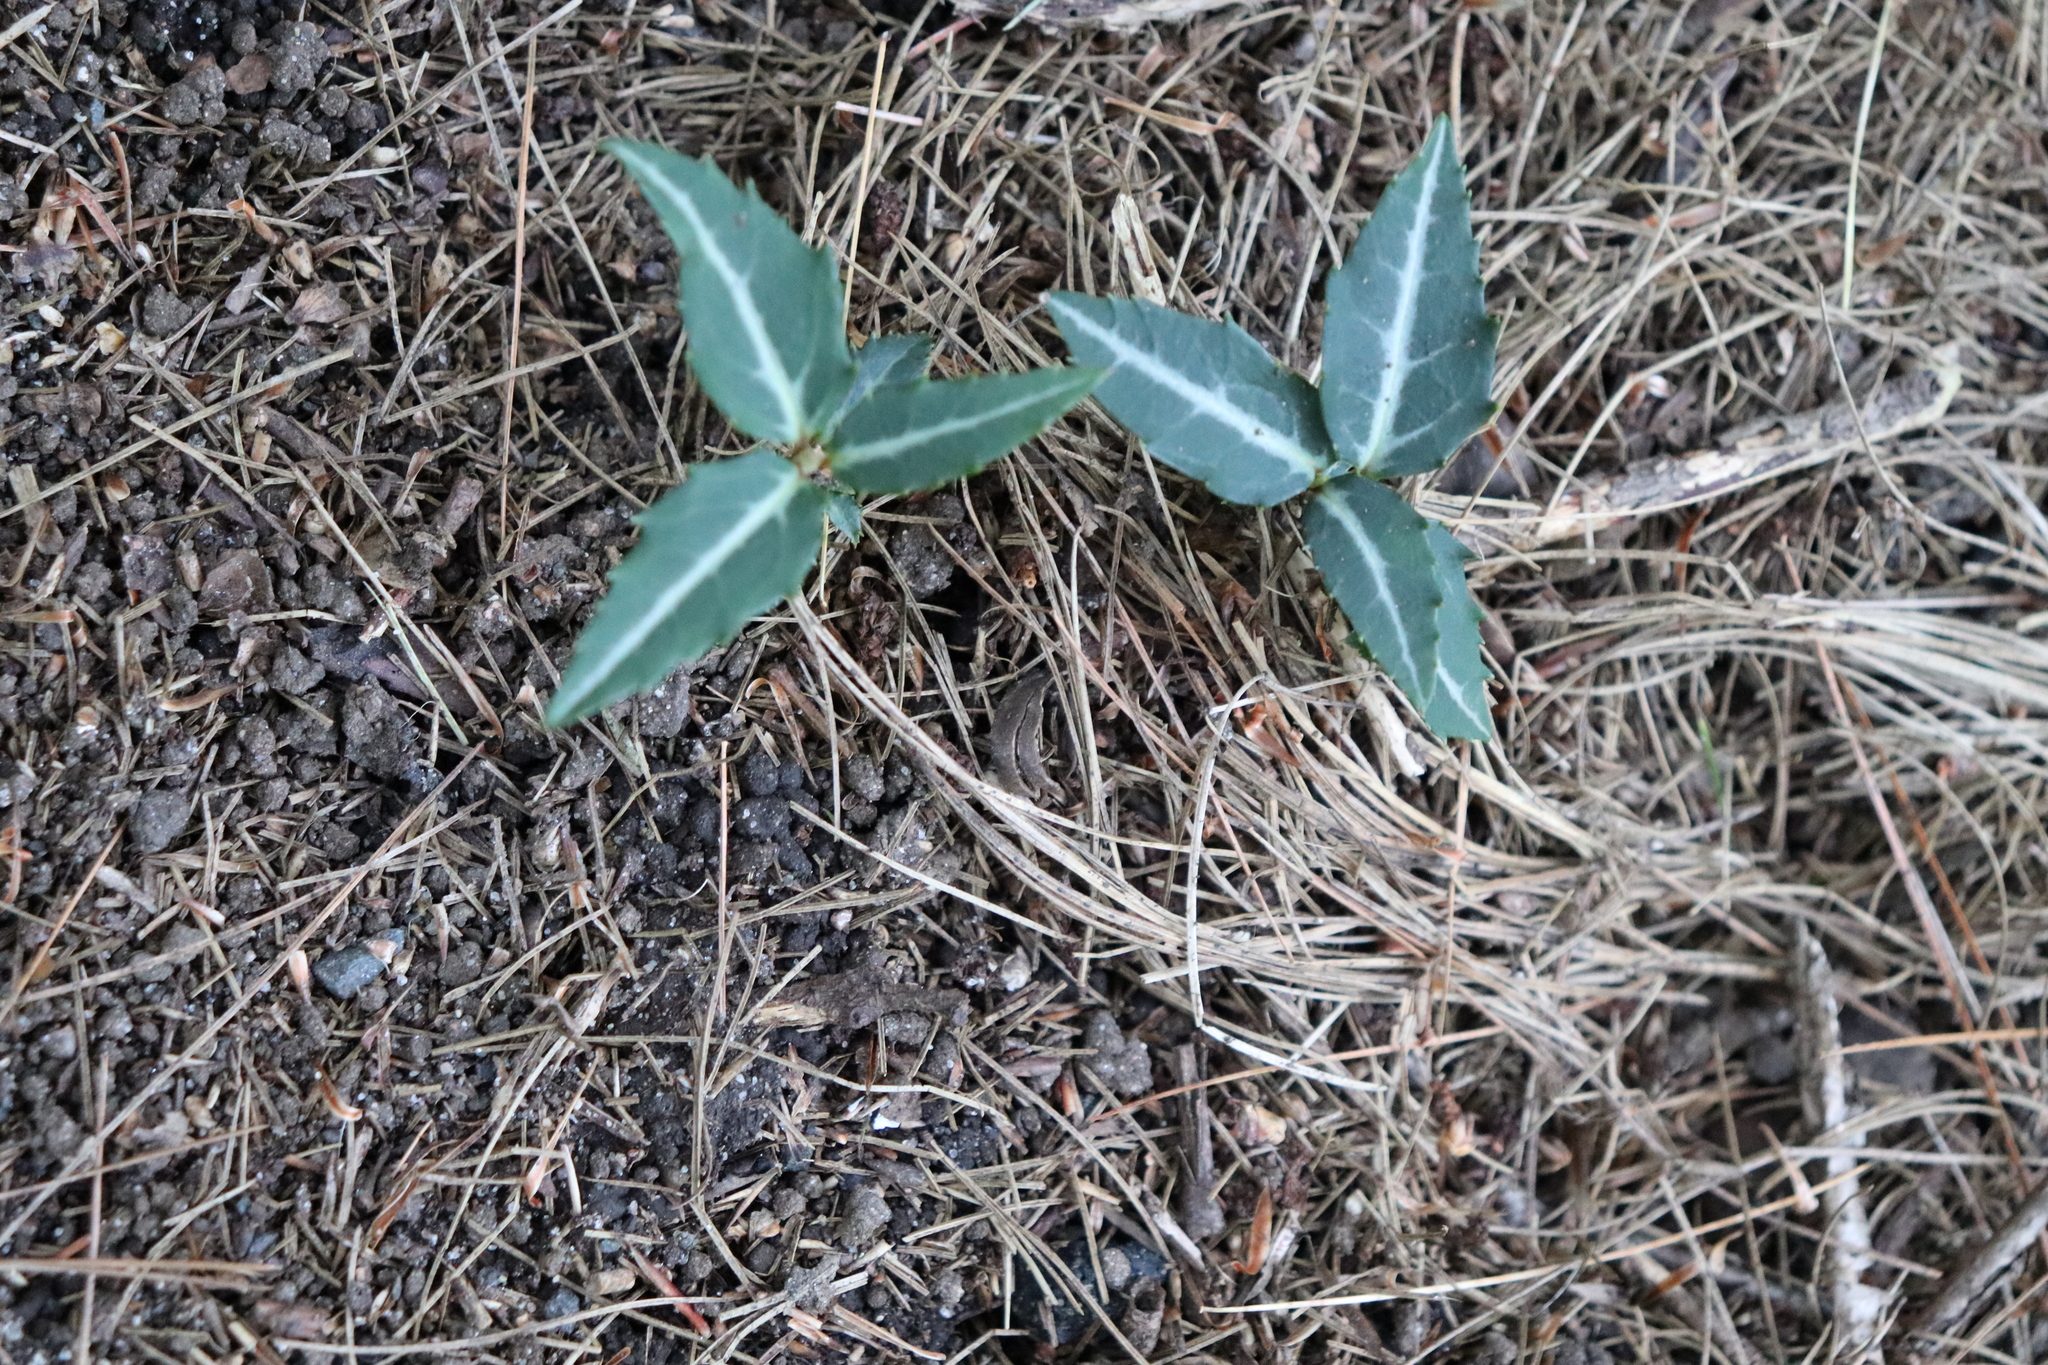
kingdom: Plantae
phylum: Tracheophyta
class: Magnoliopsida
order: Ericales
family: Ericaceae
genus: Chimaphila
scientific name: Chimaphila maculata
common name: Spotted pipsissewa
